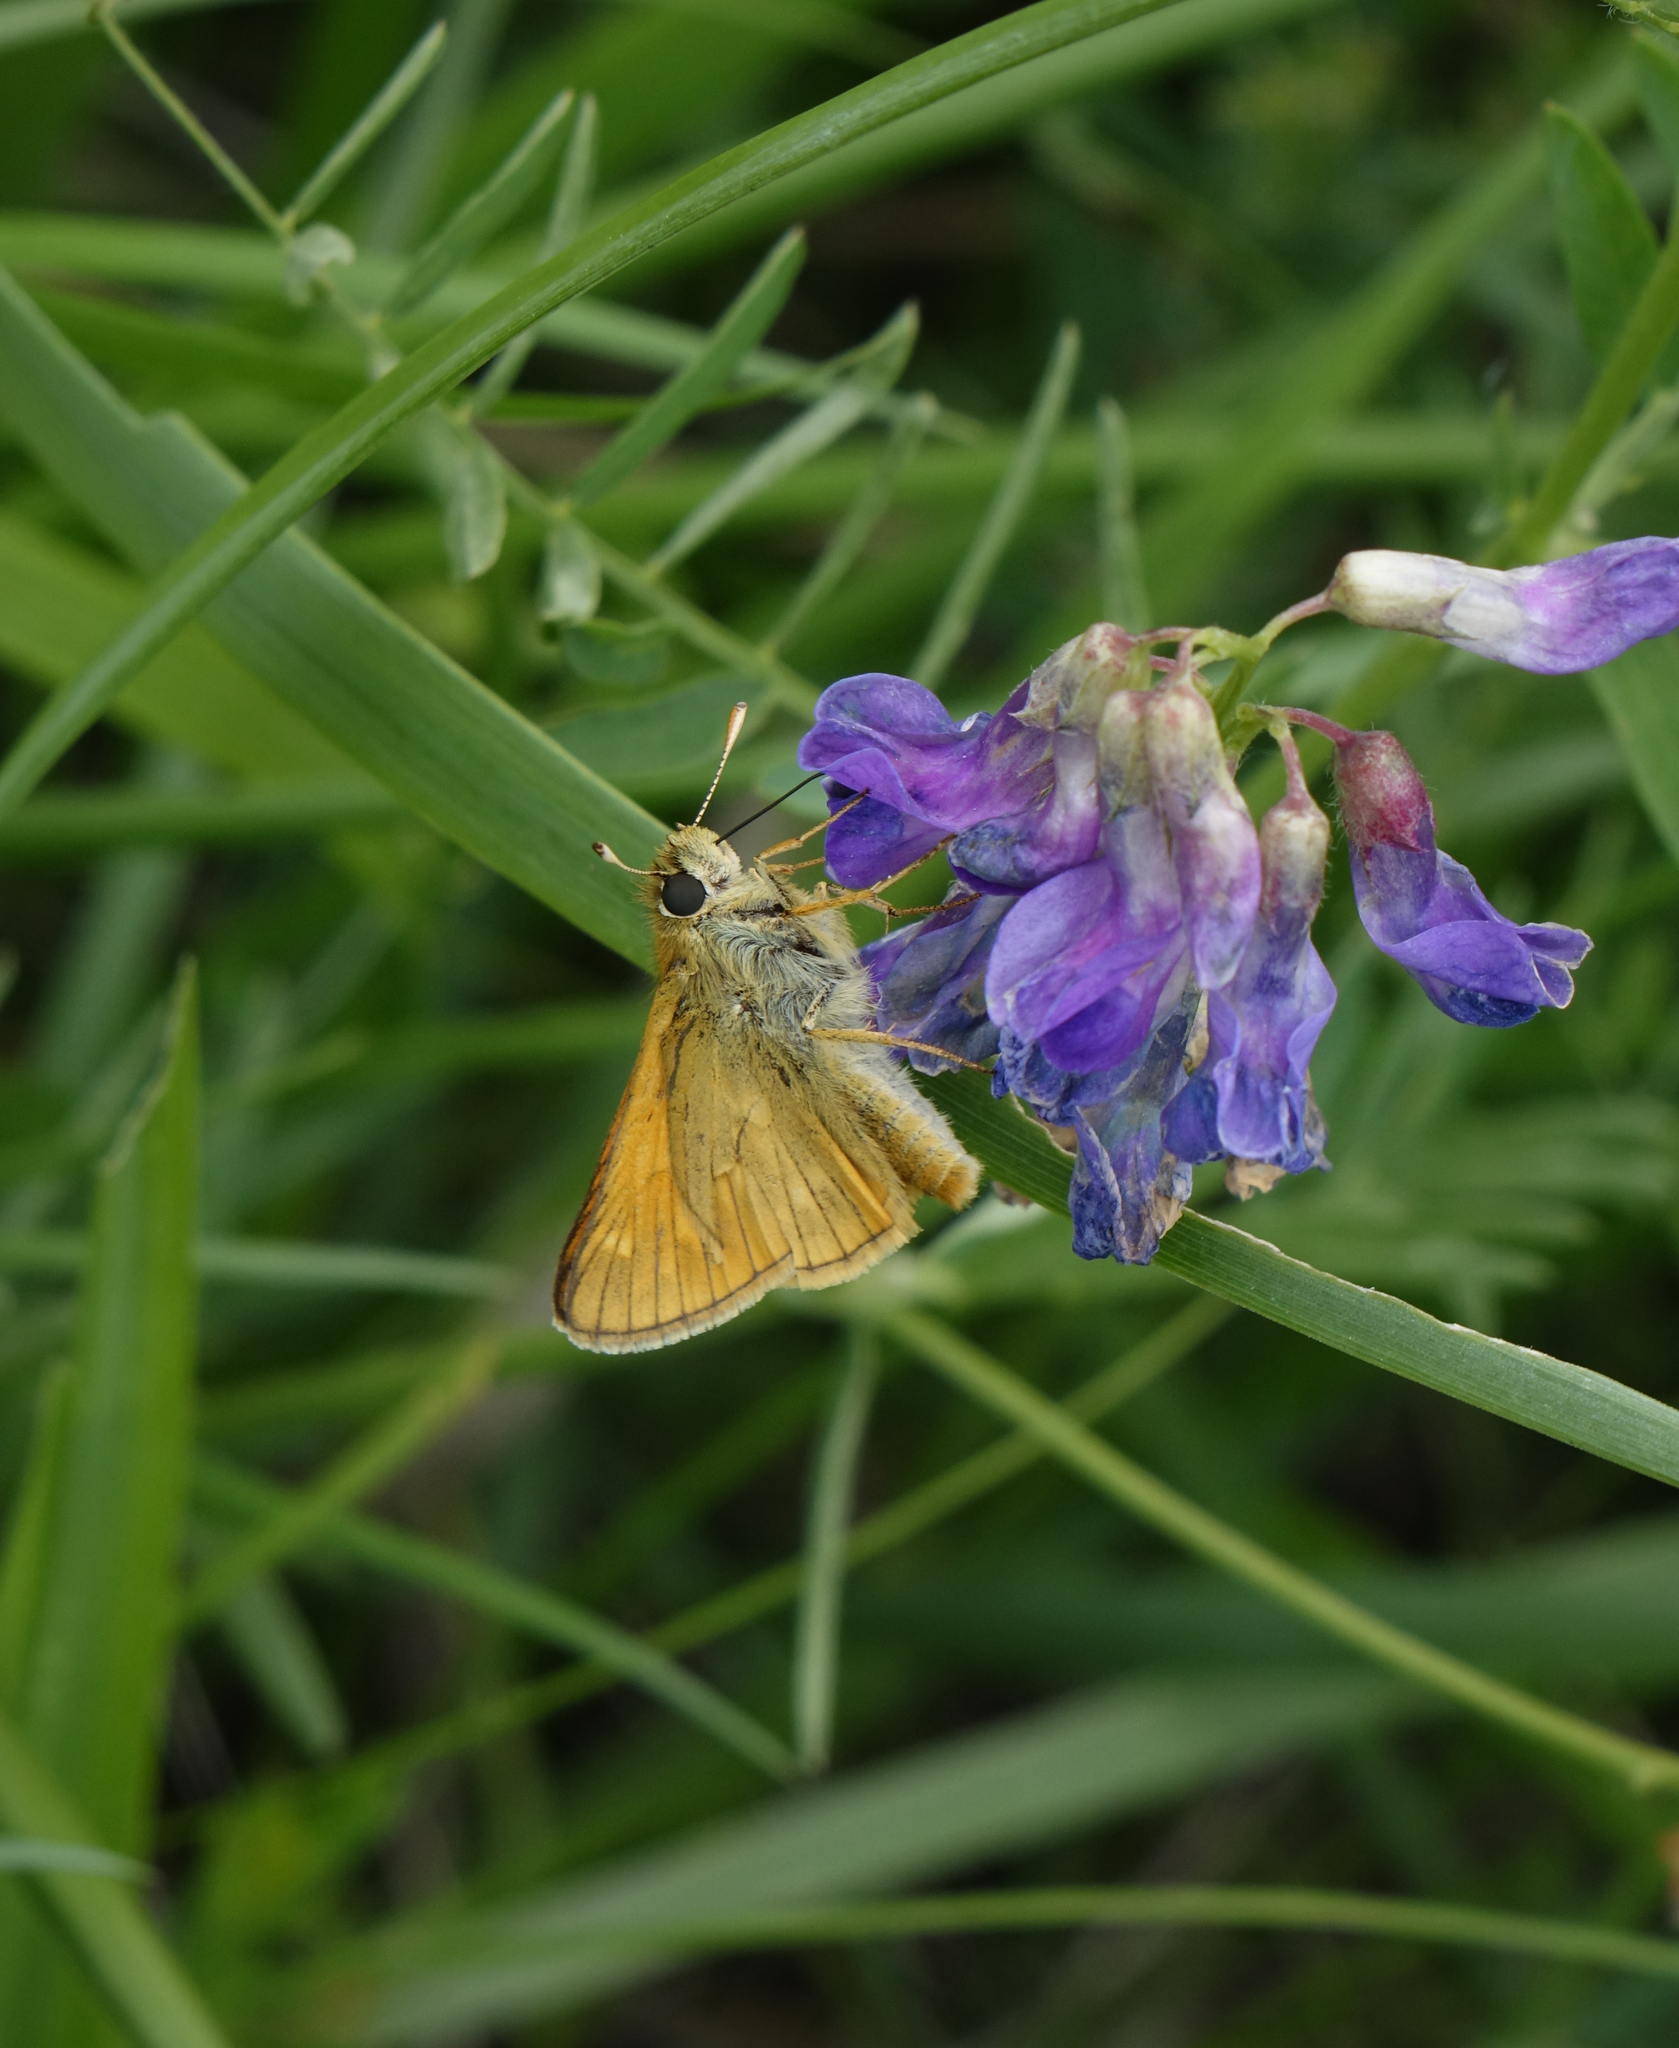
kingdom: Animalia
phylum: Arthropoda
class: Insecta
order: Lepidoptera
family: Hesperiidae
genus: Ochlodes
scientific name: Ochlodes venata
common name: Large skipper
